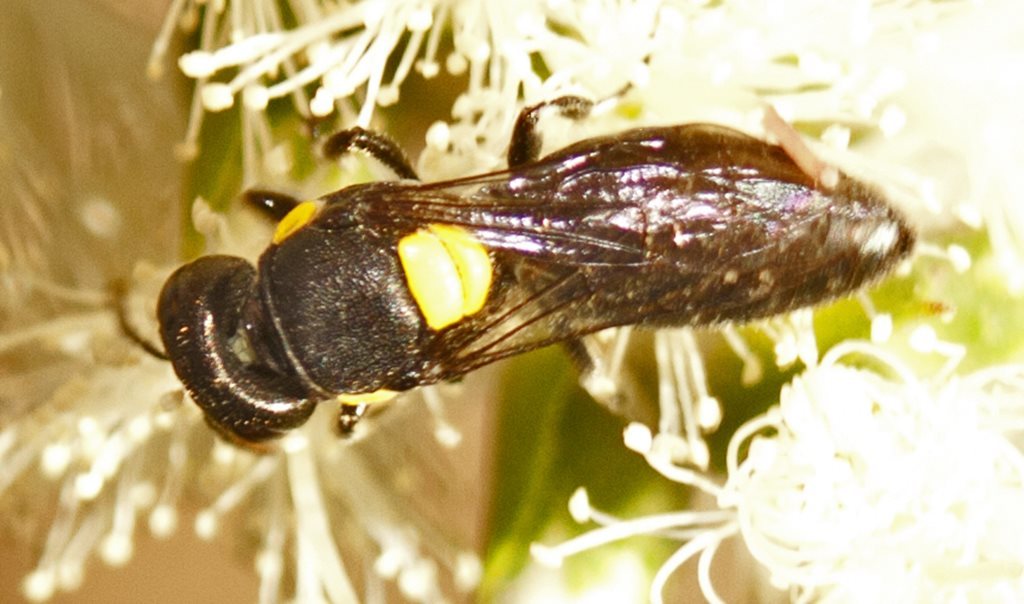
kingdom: Animalia
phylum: Arthropoda
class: Insecta
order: Hymenoptera
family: Colletidae
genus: Hylaeus
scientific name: Hylaeus rotundiceps
